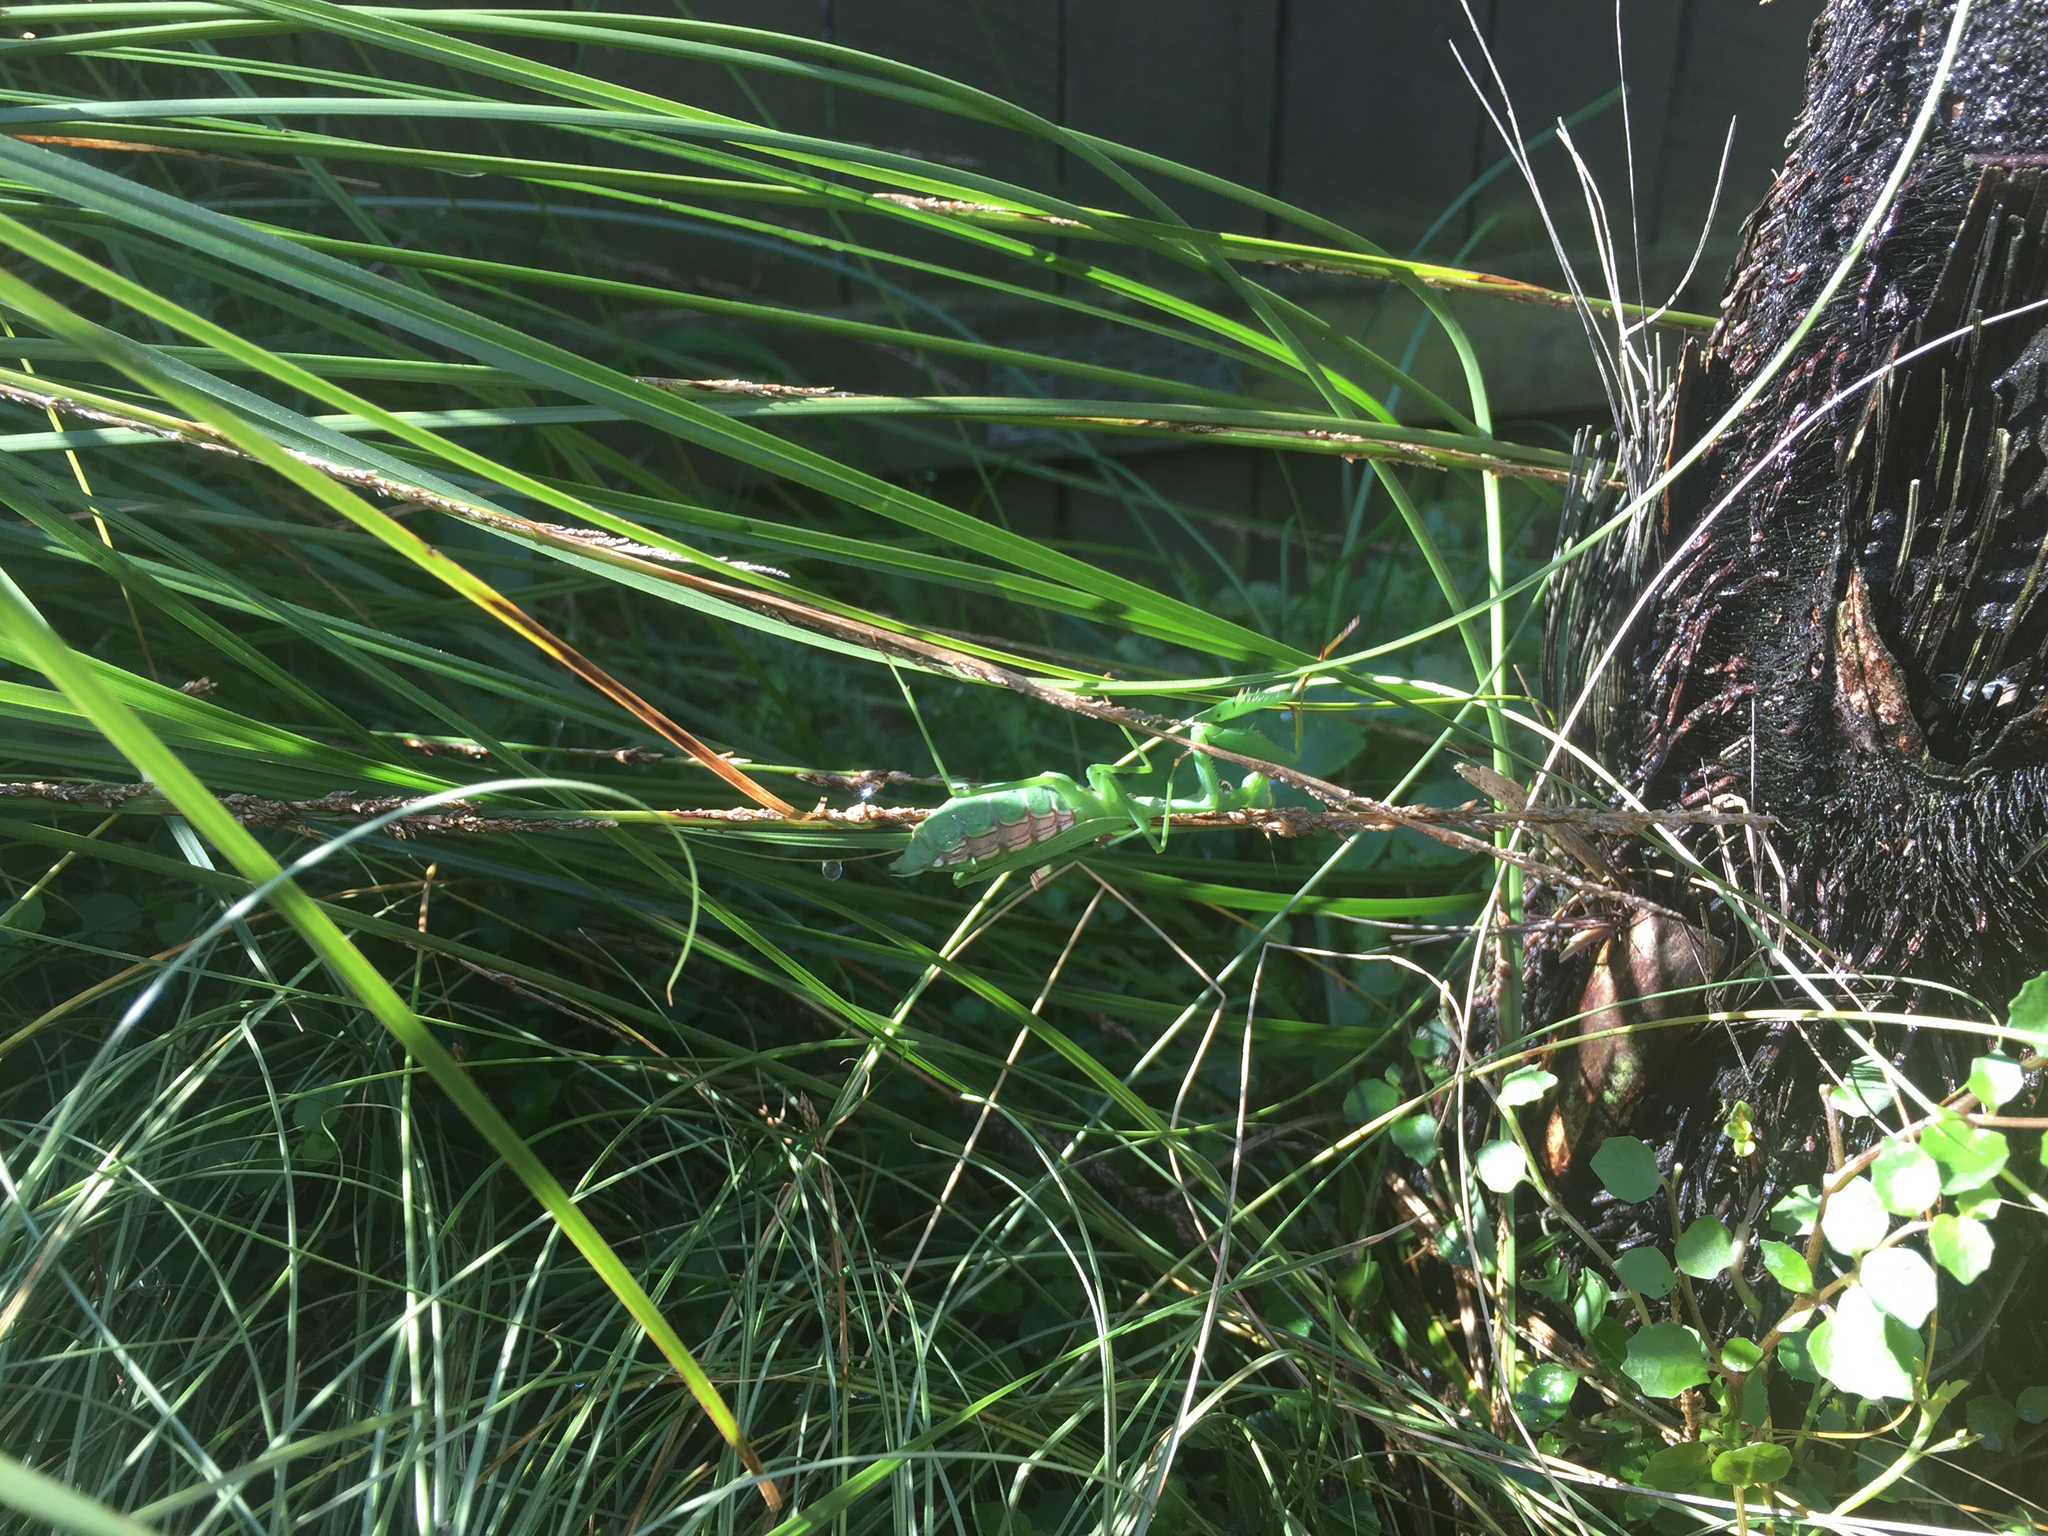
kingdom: Animalia
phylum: Arthropoda
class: Insecta
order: Mantodea
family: Miomantidae
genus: Miomantis
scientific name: Miomantis caffra
